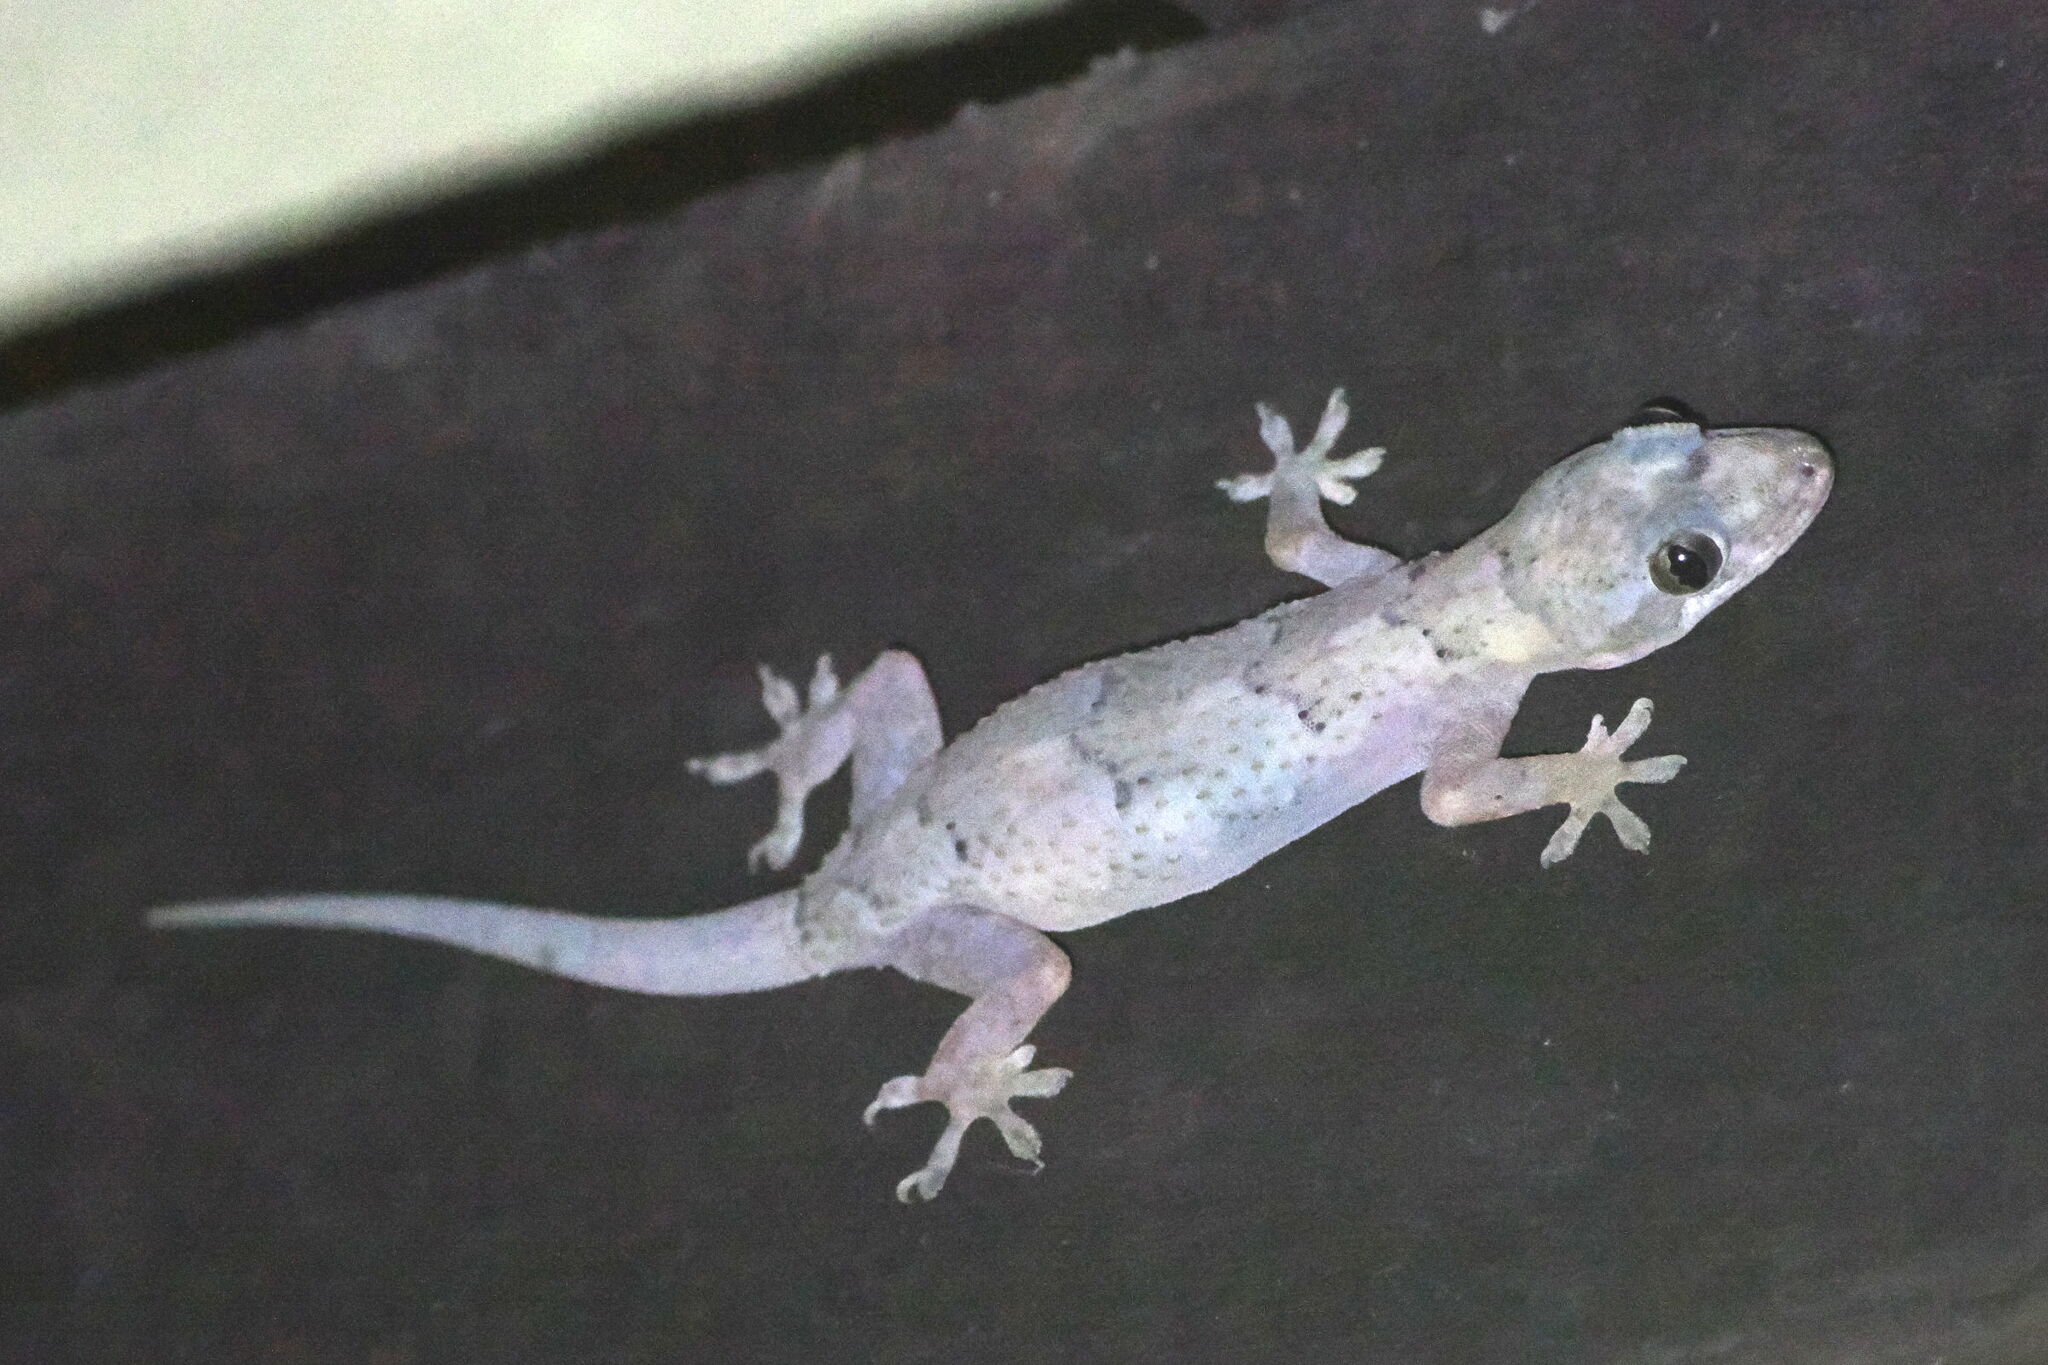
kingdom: Animalia
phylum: Chordata
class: Squamata
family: Gekkonidae
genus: Hemidactylus
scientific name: Hemidactylus mabouia
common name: House gecko
